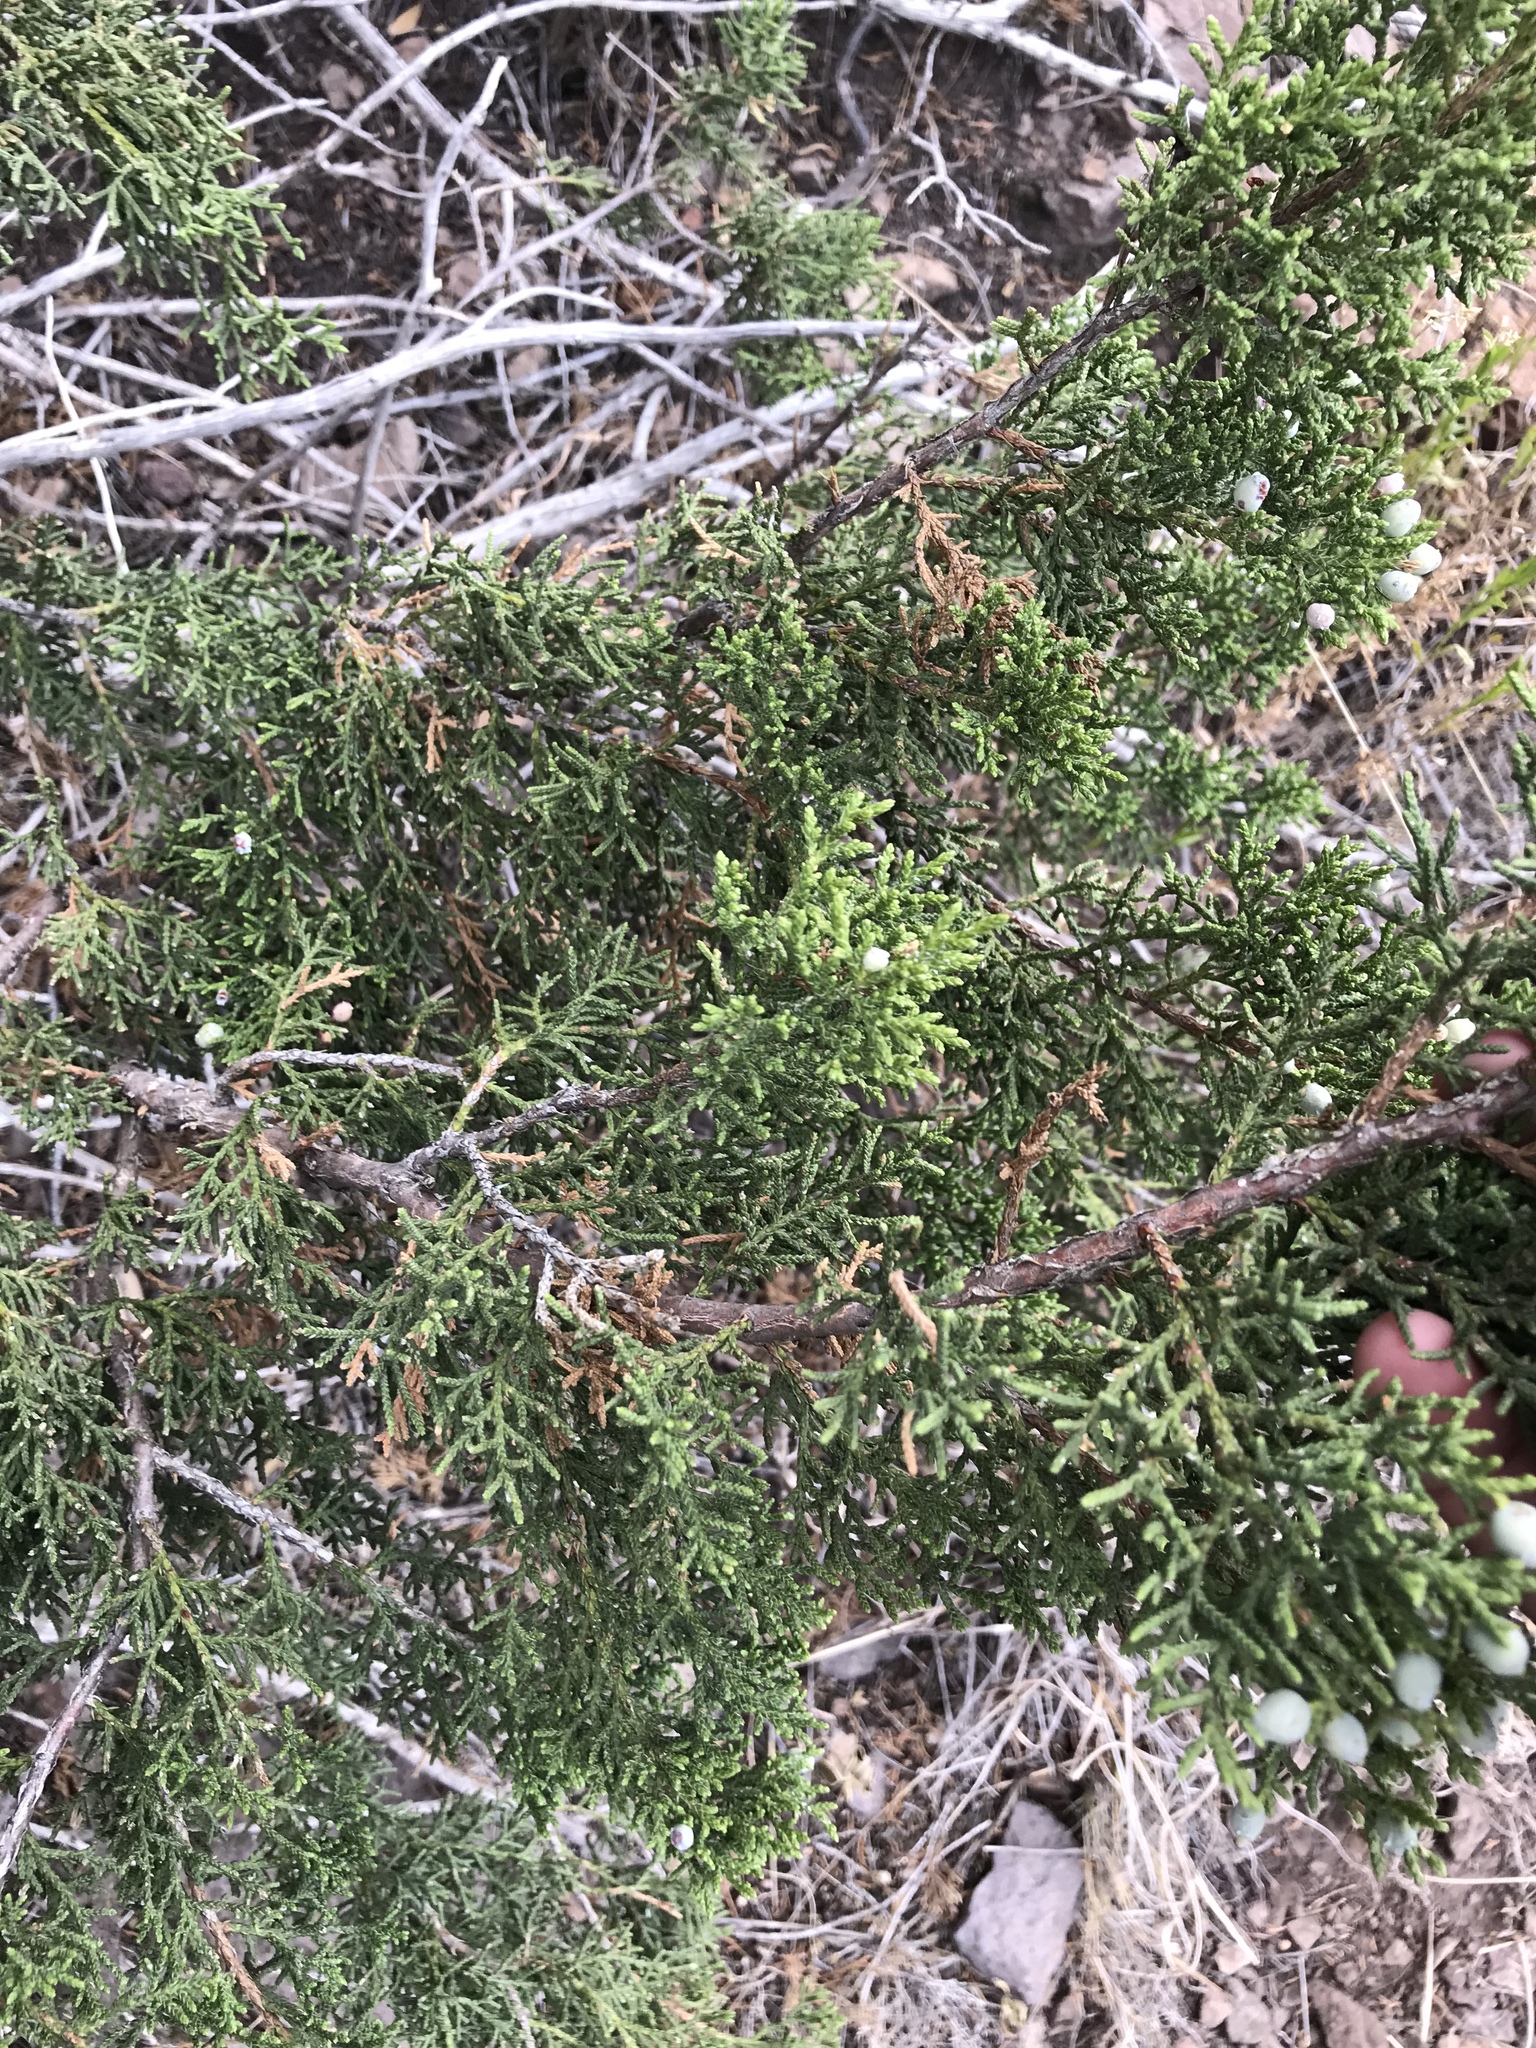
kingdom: Plantae
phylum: Tracheophyta
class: Pinopsida
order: Pinales
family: Cupressaceae
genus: Juniperus
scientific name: Juniperus monosperma
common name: One-seed juniper
